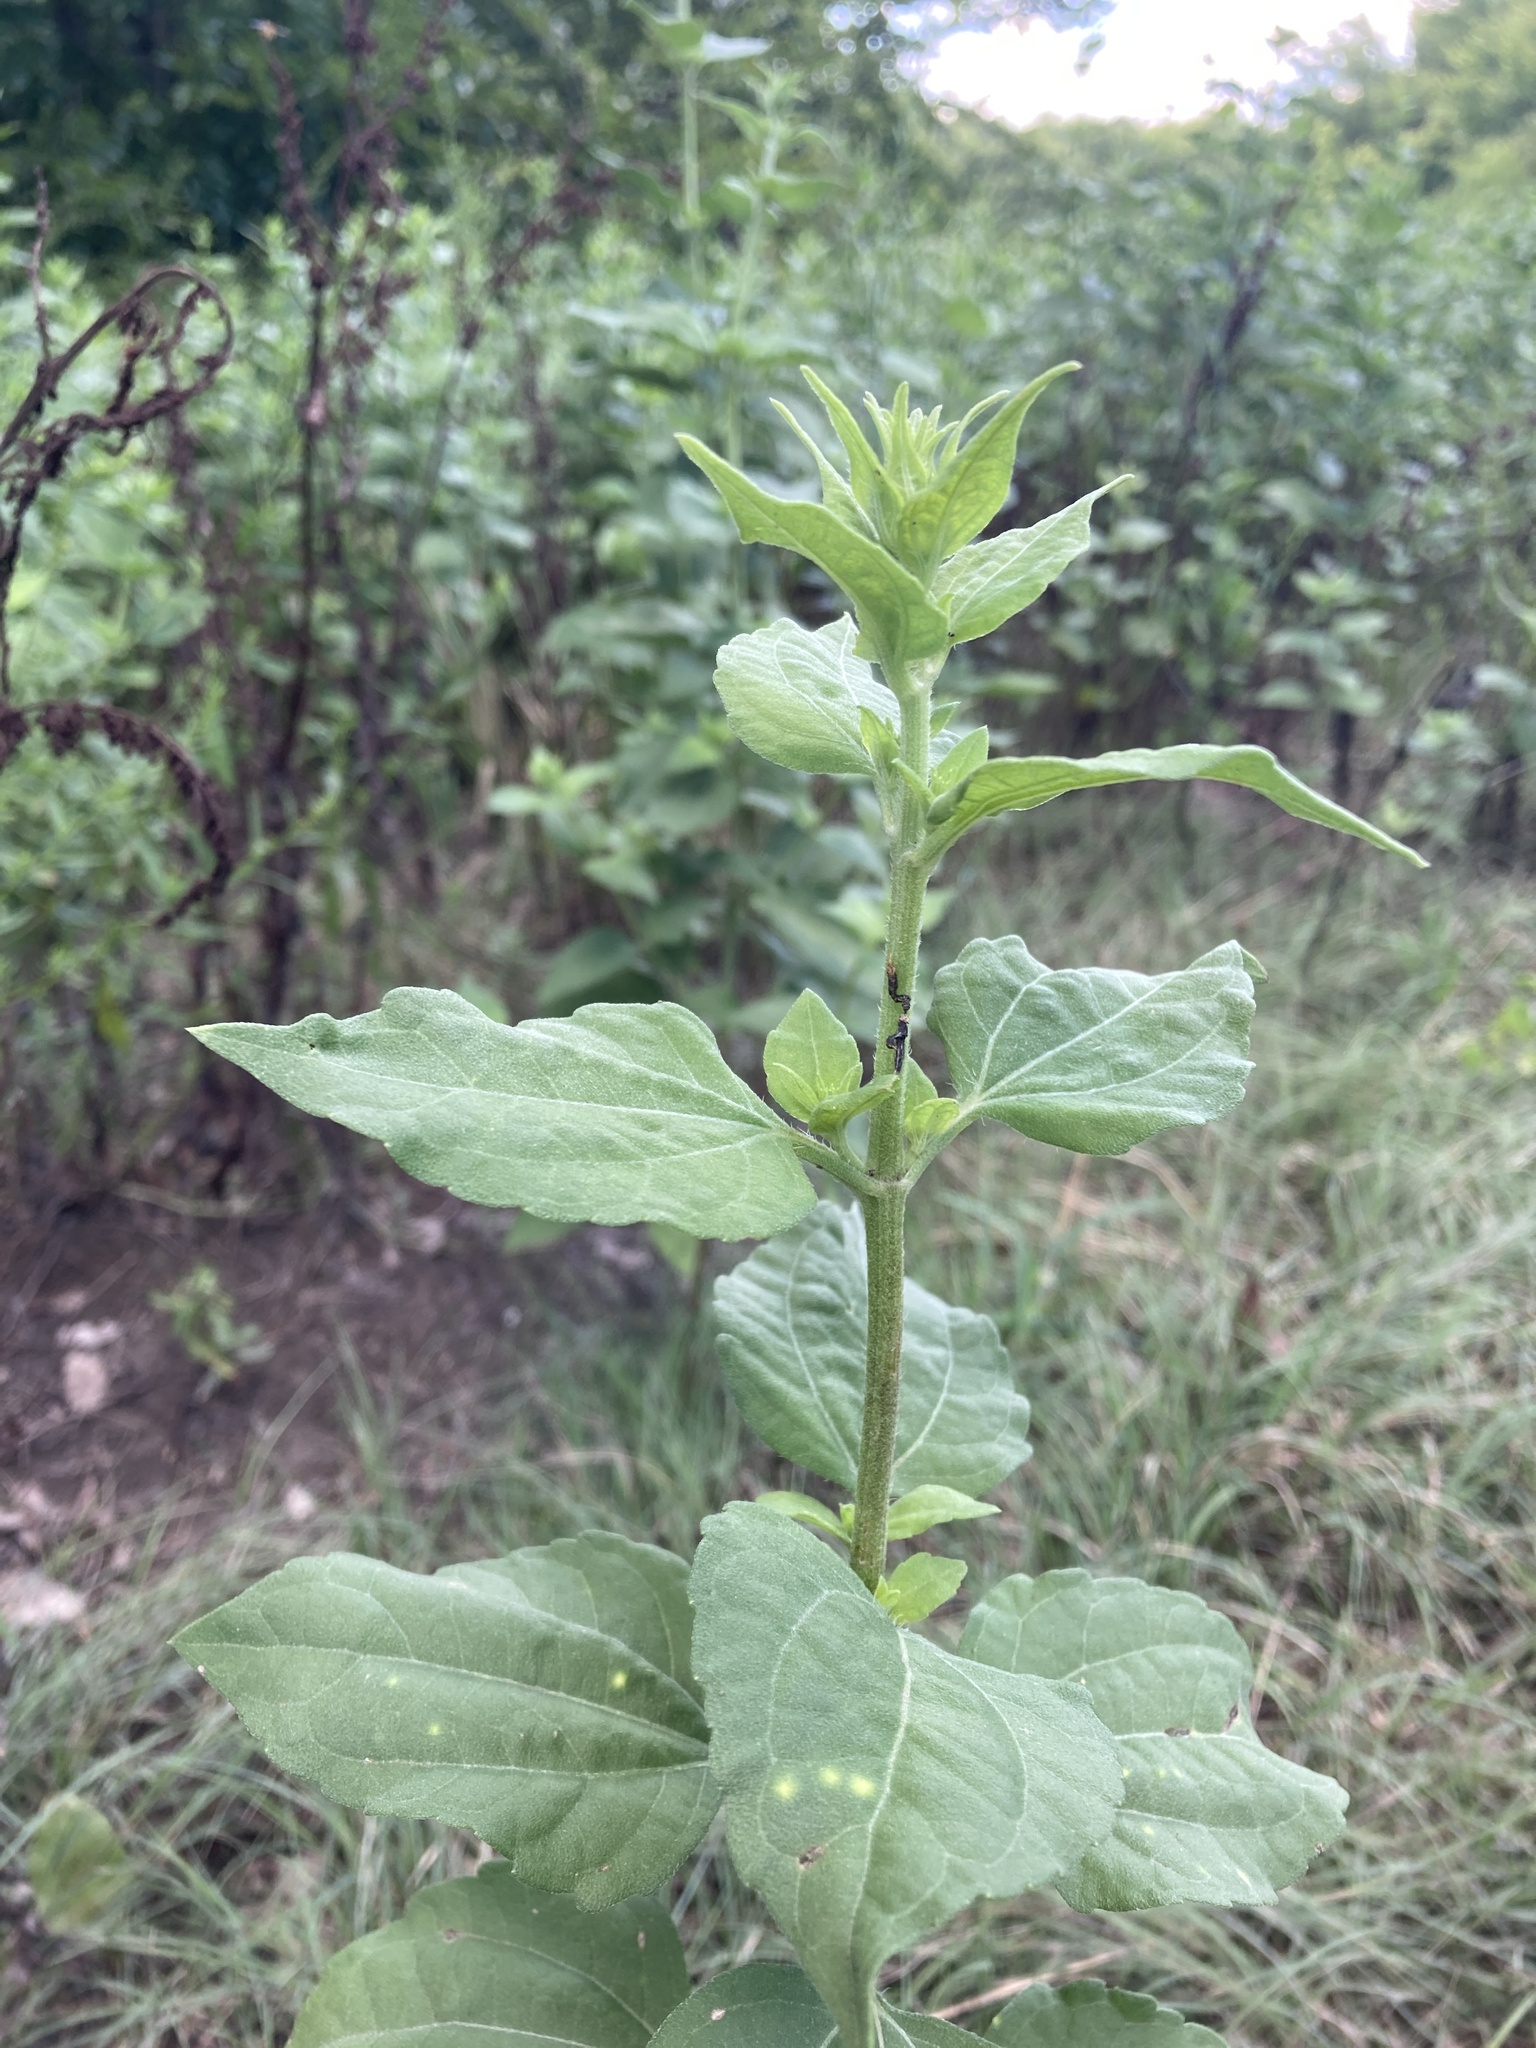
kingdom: Plantae
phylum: Tracheophyta
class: Magnoliopsida
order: Asterales
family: Asteraceae
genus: Iva
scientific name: Iva annua
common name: Marsh-elder
